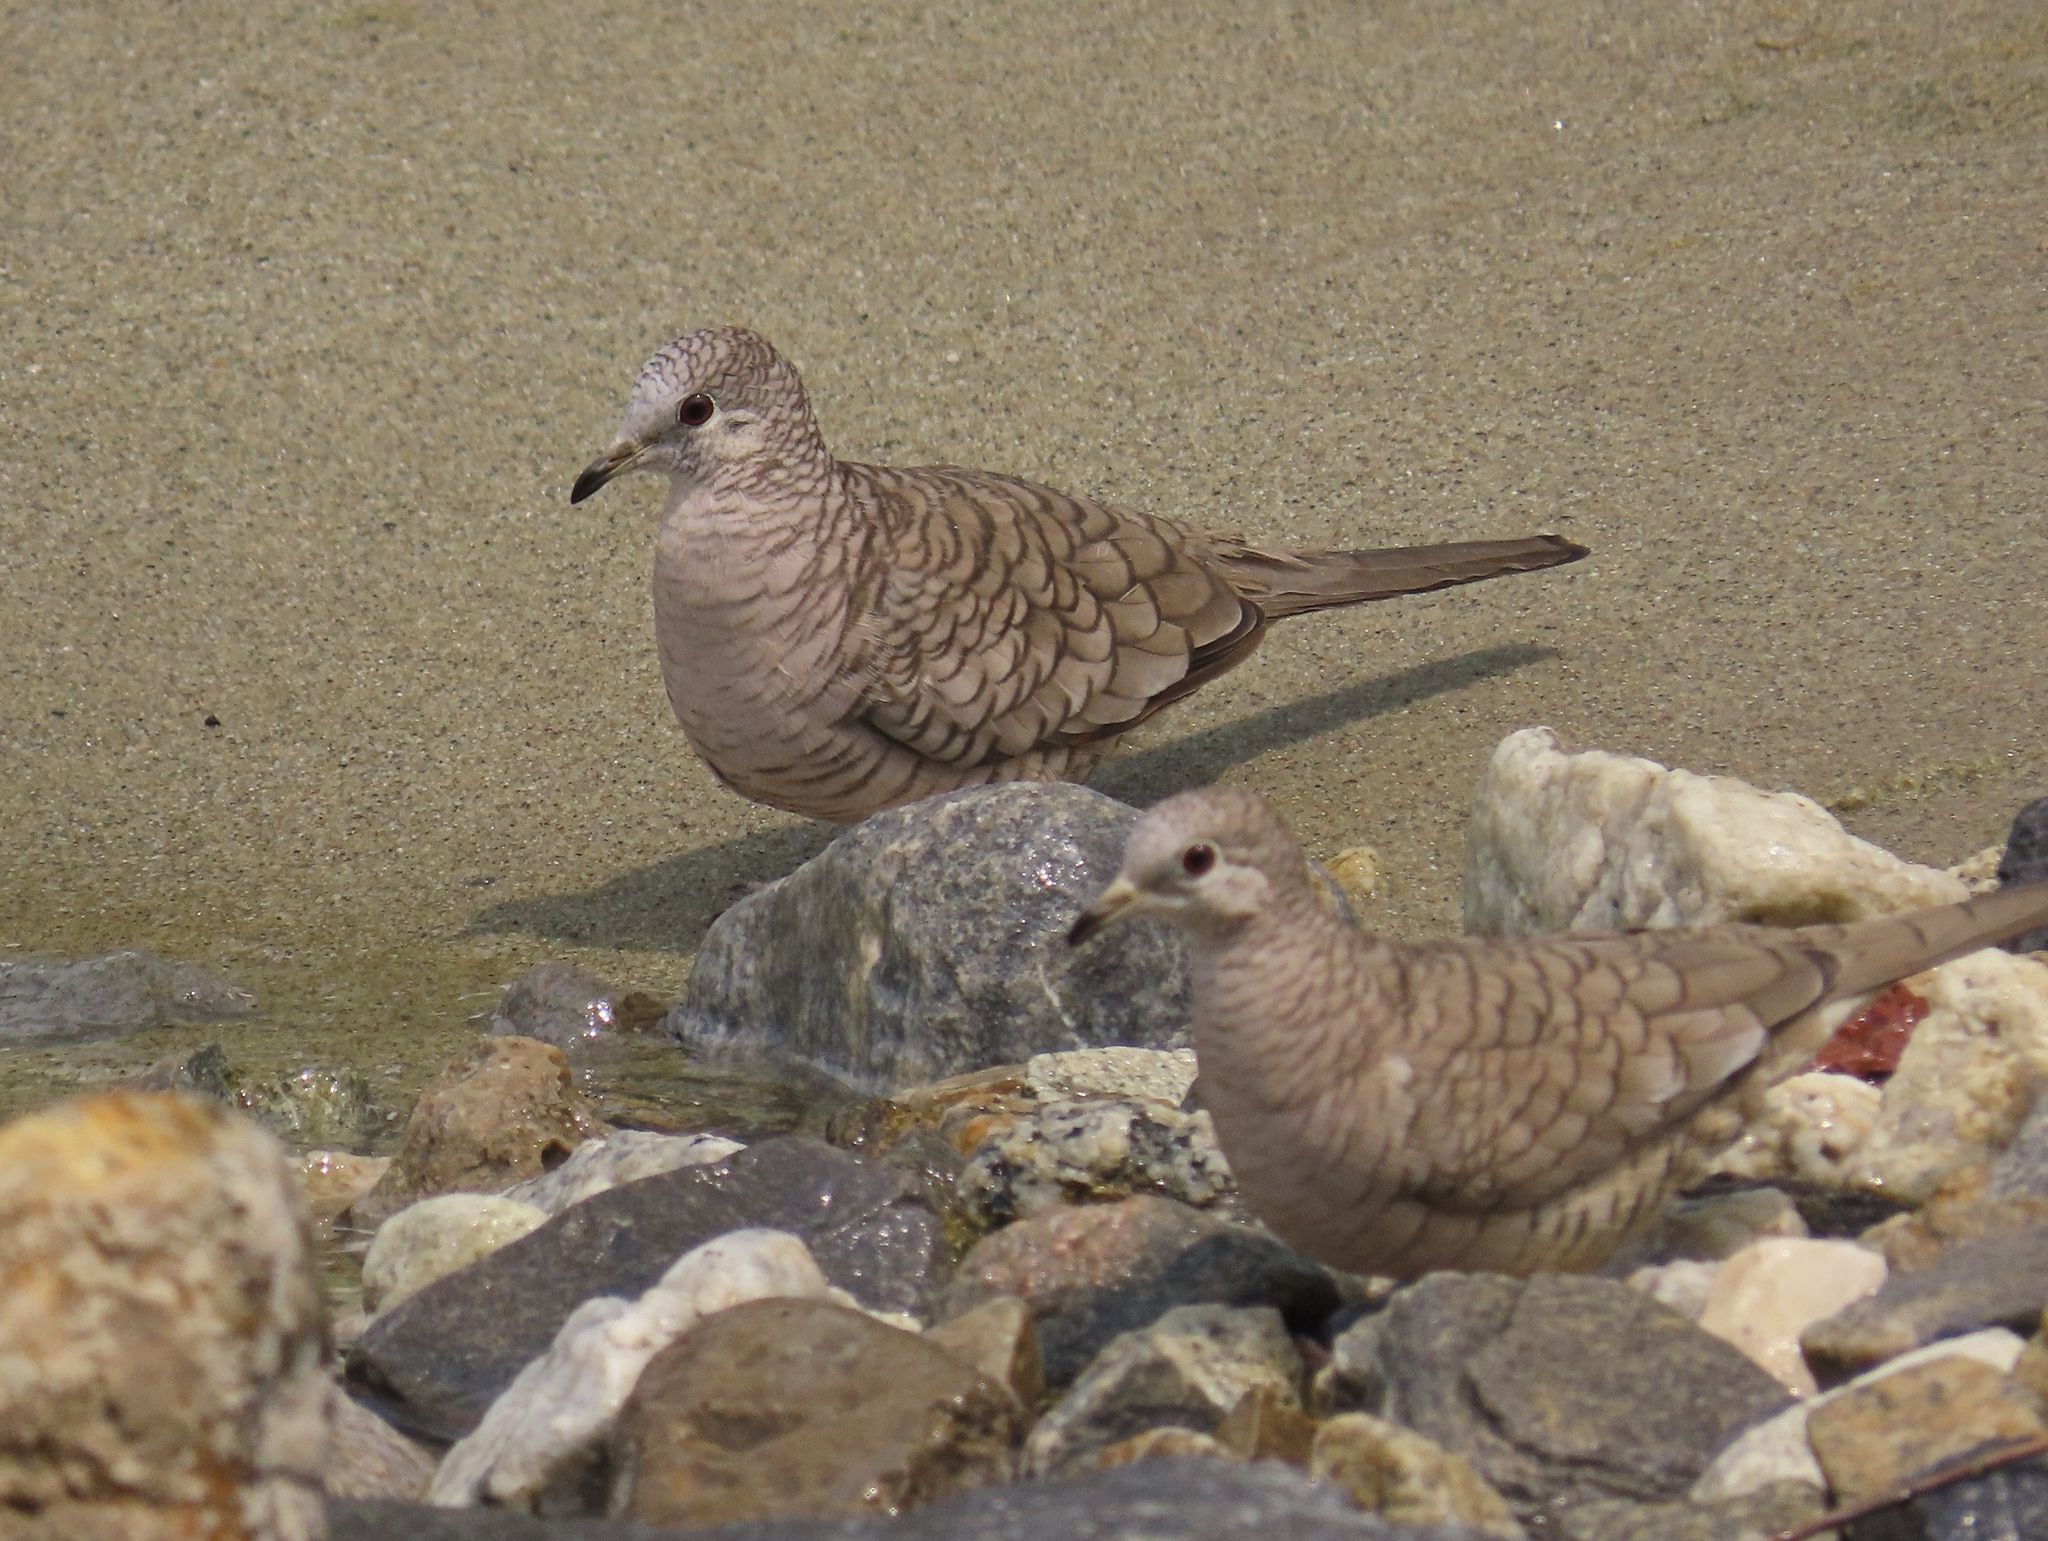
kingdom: Animalia
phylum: Chordata
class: Aves
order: Columbiformes
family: Columbidae
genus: Columbina
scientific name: Columbina inca
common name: Inca dove
